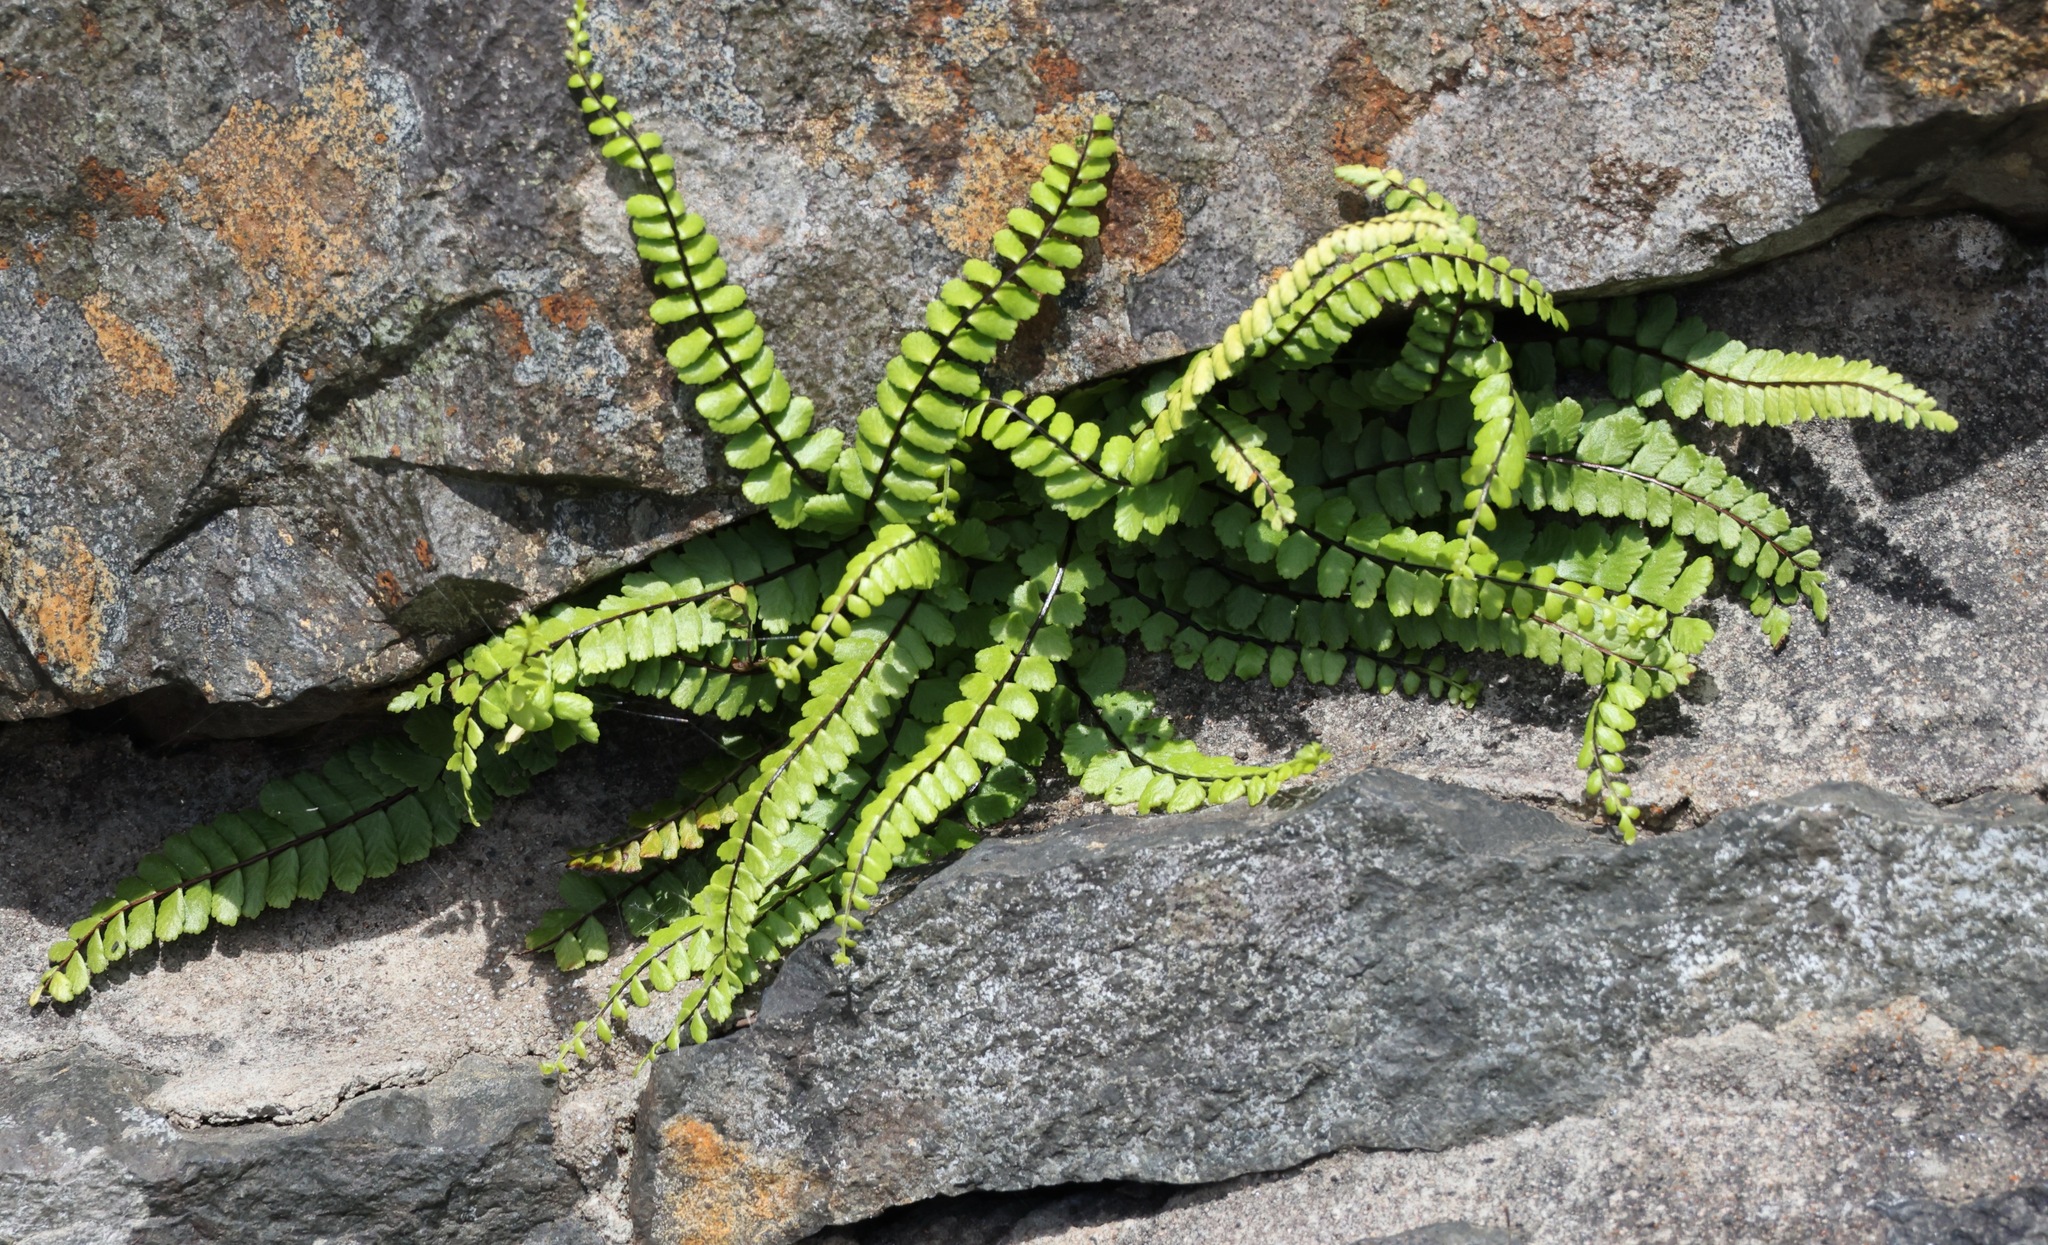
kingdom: Plantae
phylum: Tracheophyta
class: Polypodiopsida
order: Polypodiales
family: Aspleniaceae
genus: Asplenium
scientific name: Asplenium trichomanes
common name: Maidenhair spleenwort
